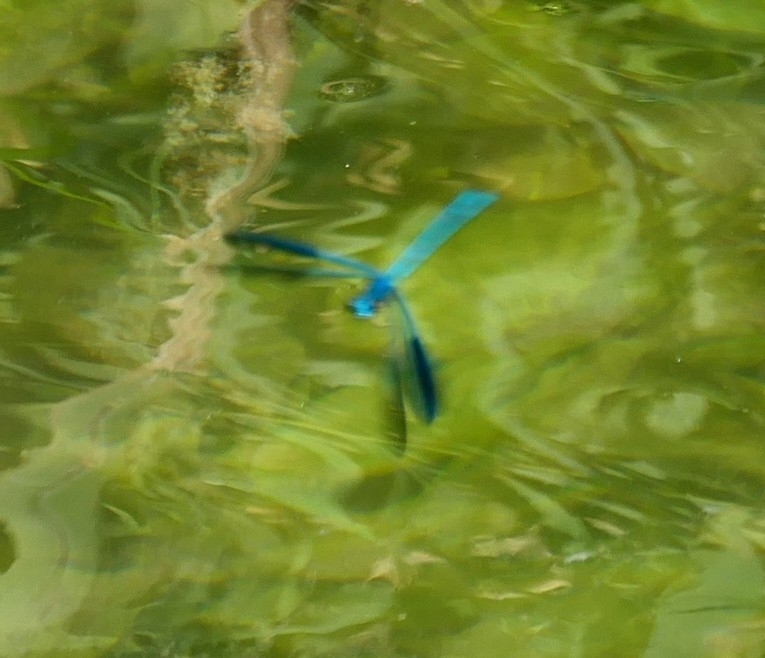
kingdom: Animalia
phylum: Arthropoda
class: Insecta
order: Odonata
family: Calopterygidae
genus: Calopteryx
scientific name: Calopteryx splendens
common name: Banded demoiselle
